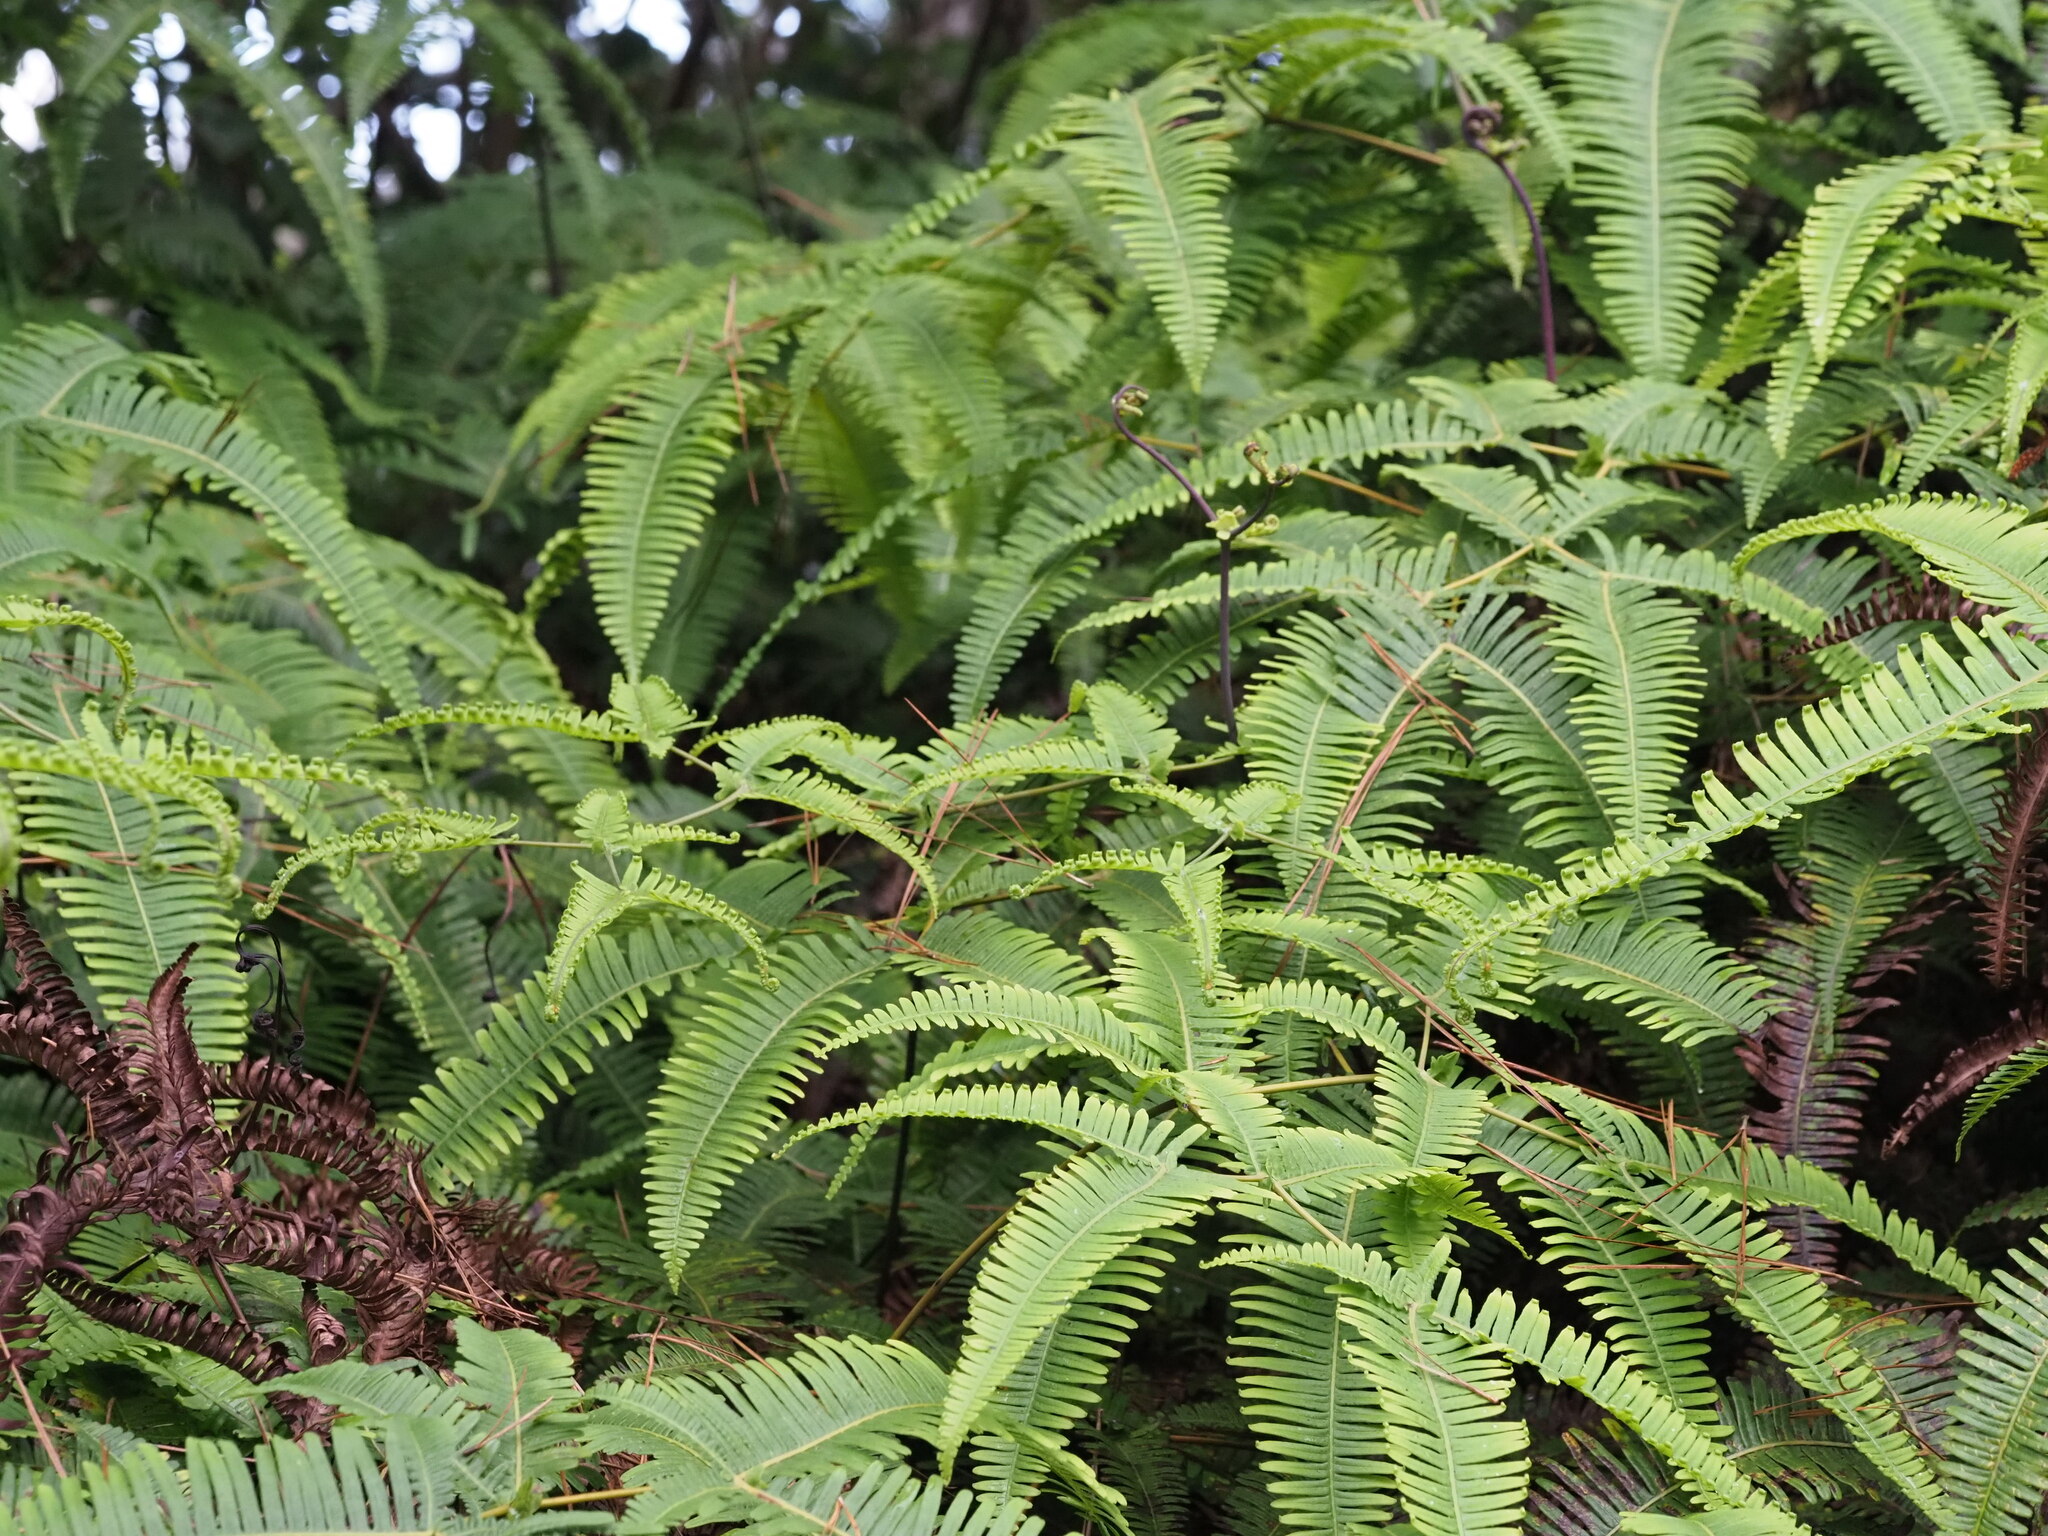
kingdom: Plantae
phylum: Tracheophyta
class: Polypodiopsida
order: Gleicheniales
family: Gleicheniaceae
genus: Dicranopteris
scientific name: Dicranopteris linearis
